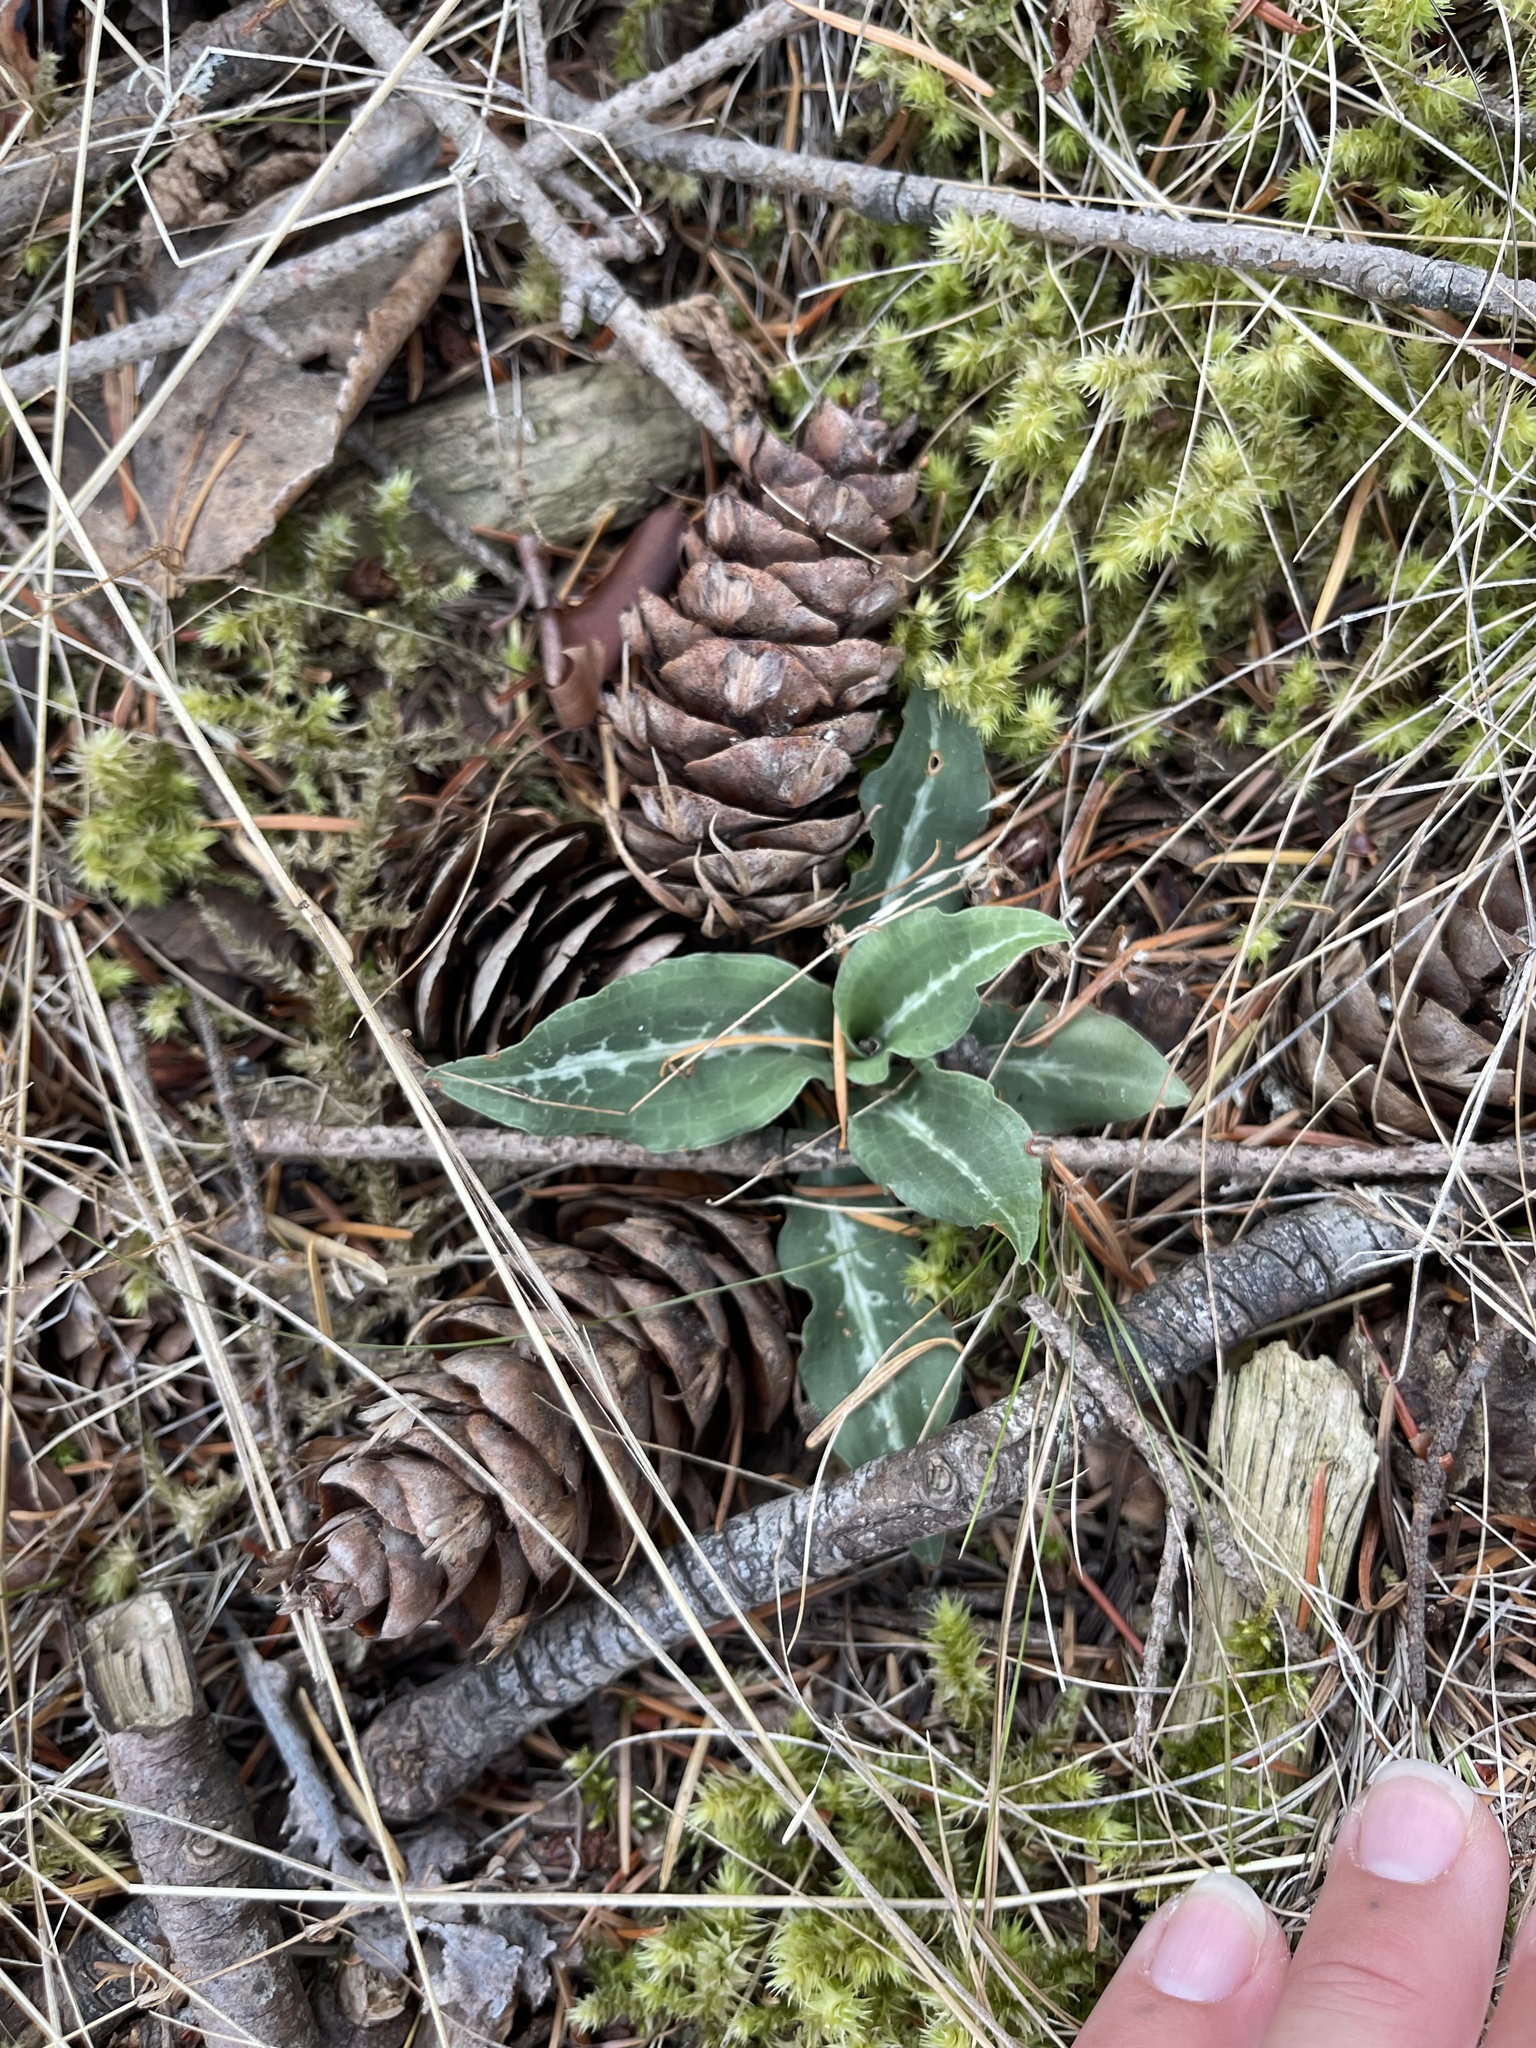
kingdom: Plantae
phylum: Tracheophyta
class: Liliopsida
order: Asparagales
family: Orchidaceae
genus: Goodyera
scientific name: Goodyera oblongifolia
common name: Giant rattlesnake-plantain
